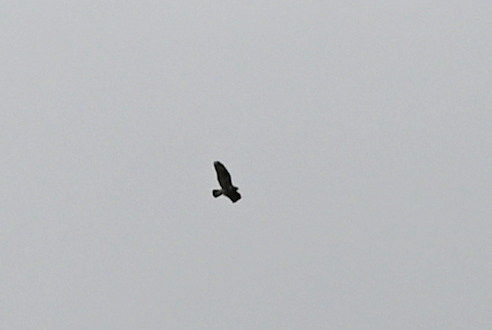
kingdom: Animalia
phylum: Chordata
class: Aves
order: Accipitriformes
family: Accipitridae
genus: Buteo
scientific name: Buteo buteo
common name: Common buzzard
